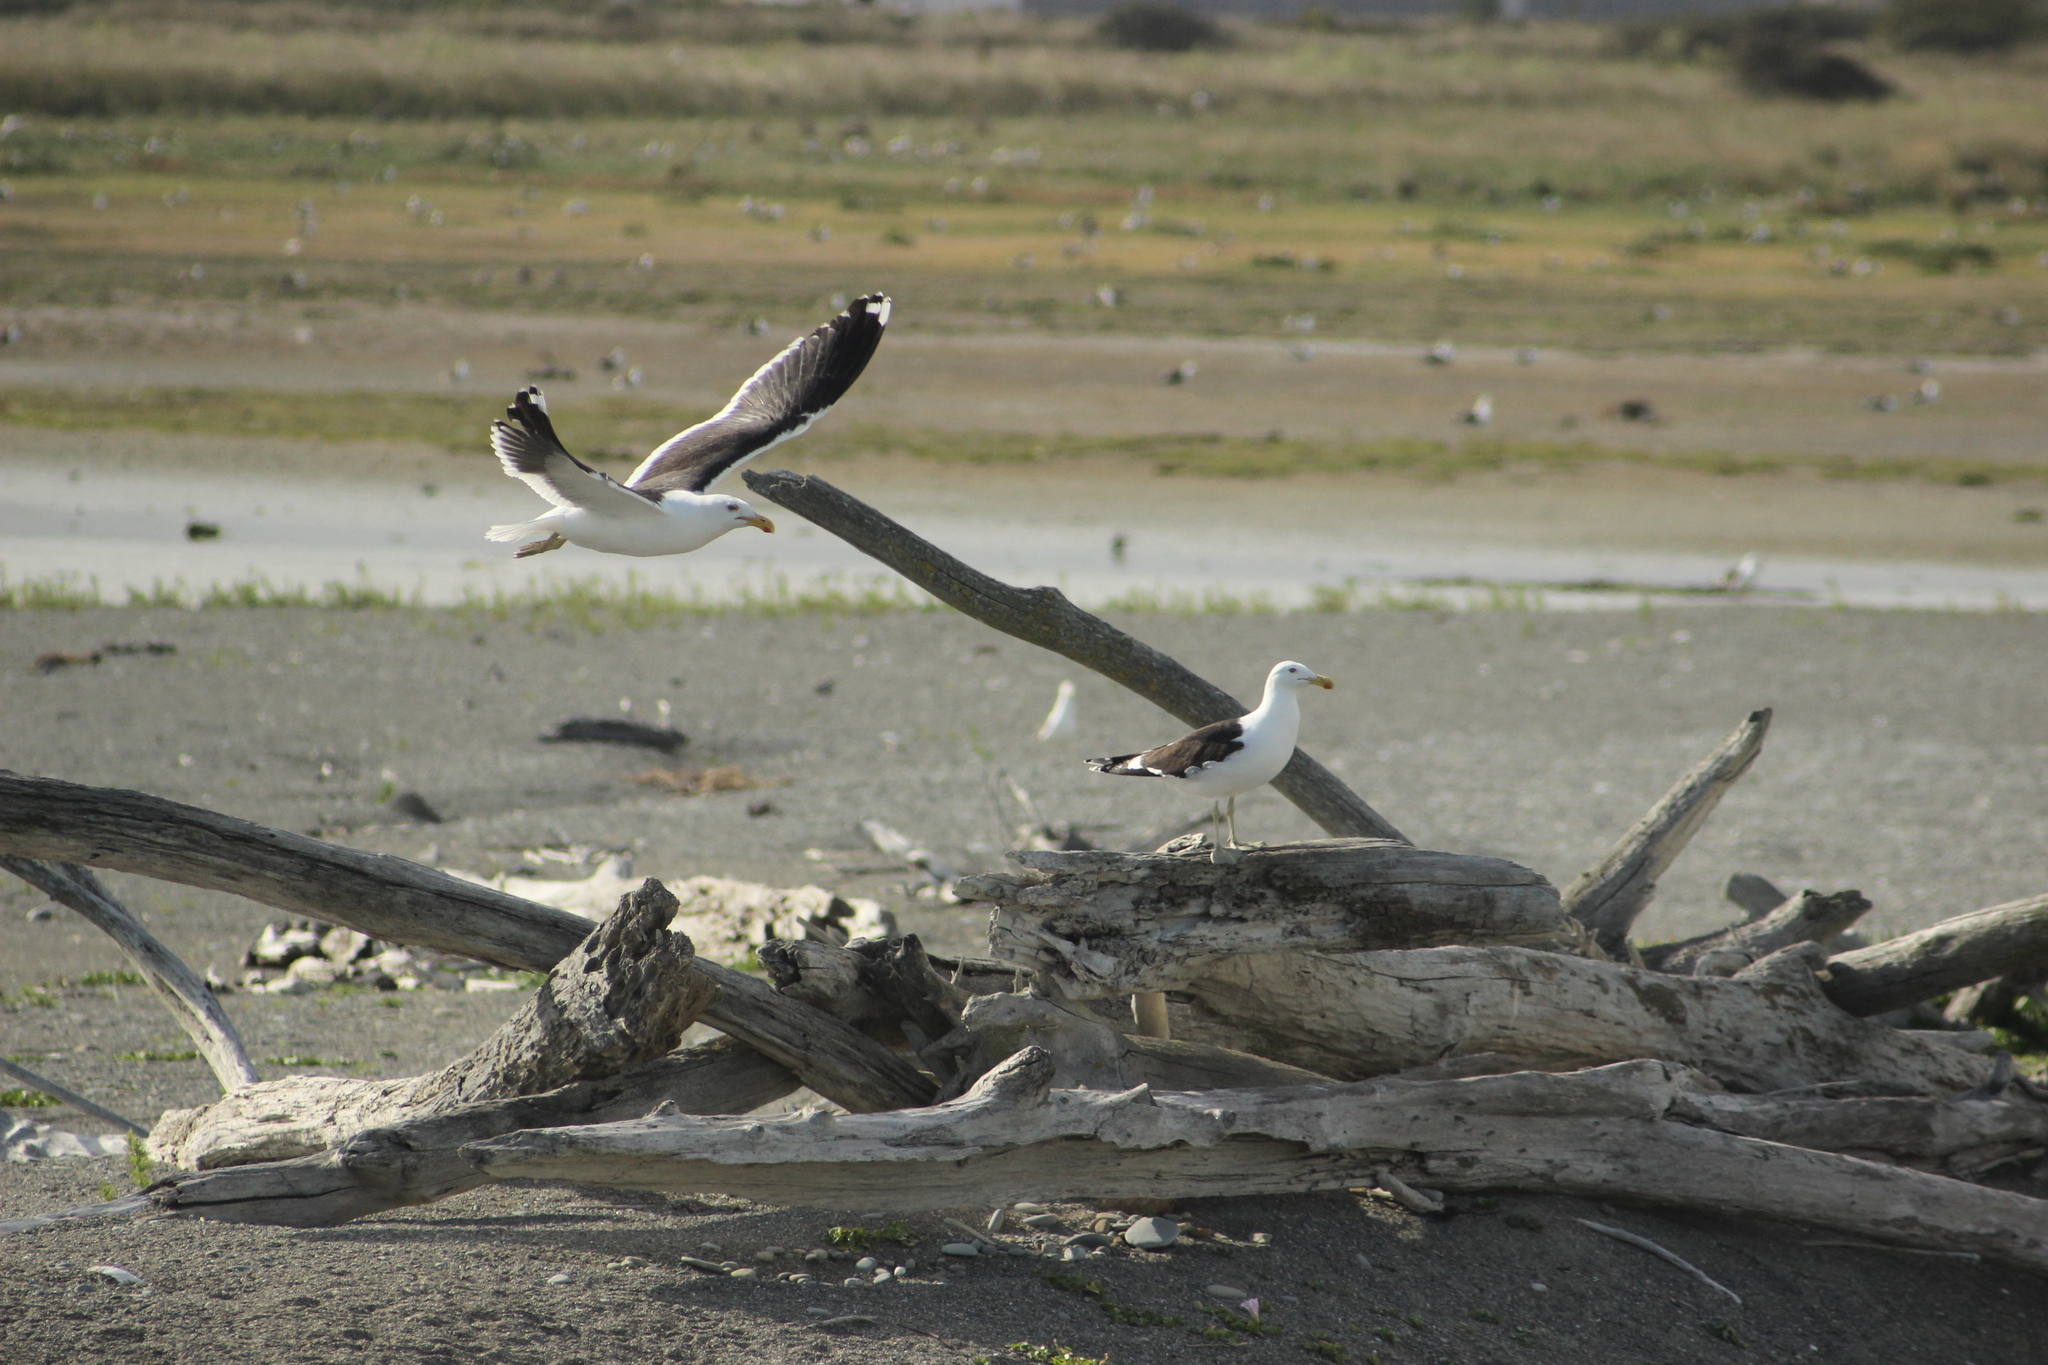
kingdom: Animalia
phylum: Chordata
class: Aves
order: Charadriiformes
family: Laridae
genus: Larus
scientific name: Larus dominicanus
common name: Kelp gull
